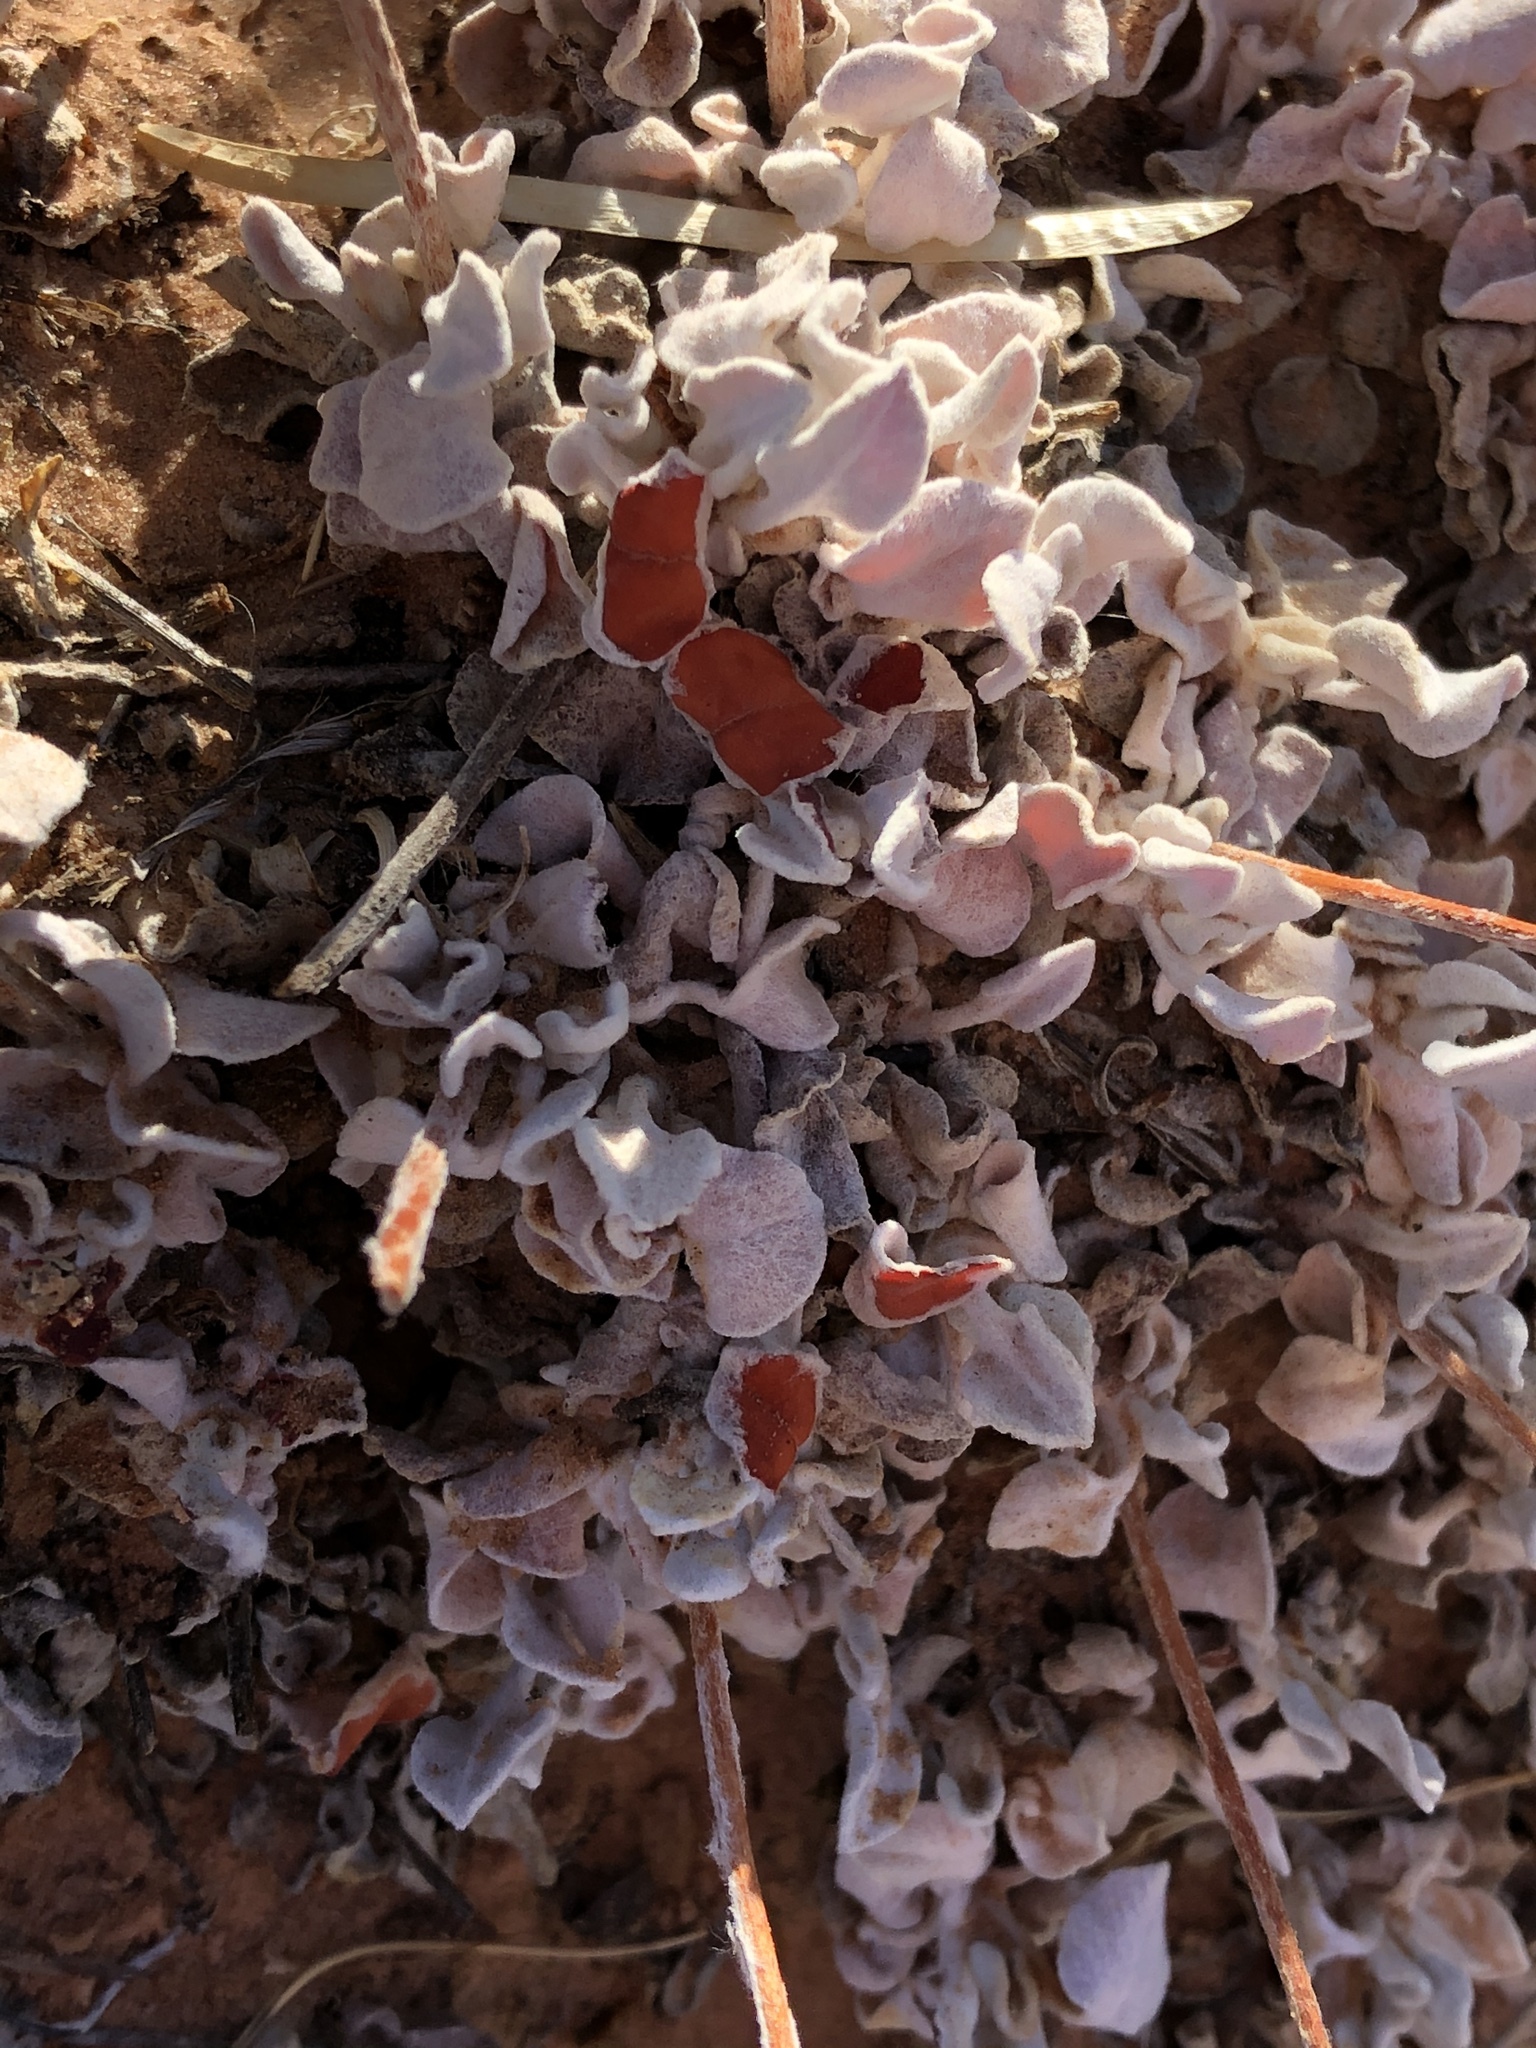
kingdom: Plantae
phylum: Tracheophyta
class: Magnoliopsida
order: Caryophyllales
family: Polygonaceae
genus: Eriogonum
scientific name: Eriogonum ovalifolium
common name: Cushion buckwheat
